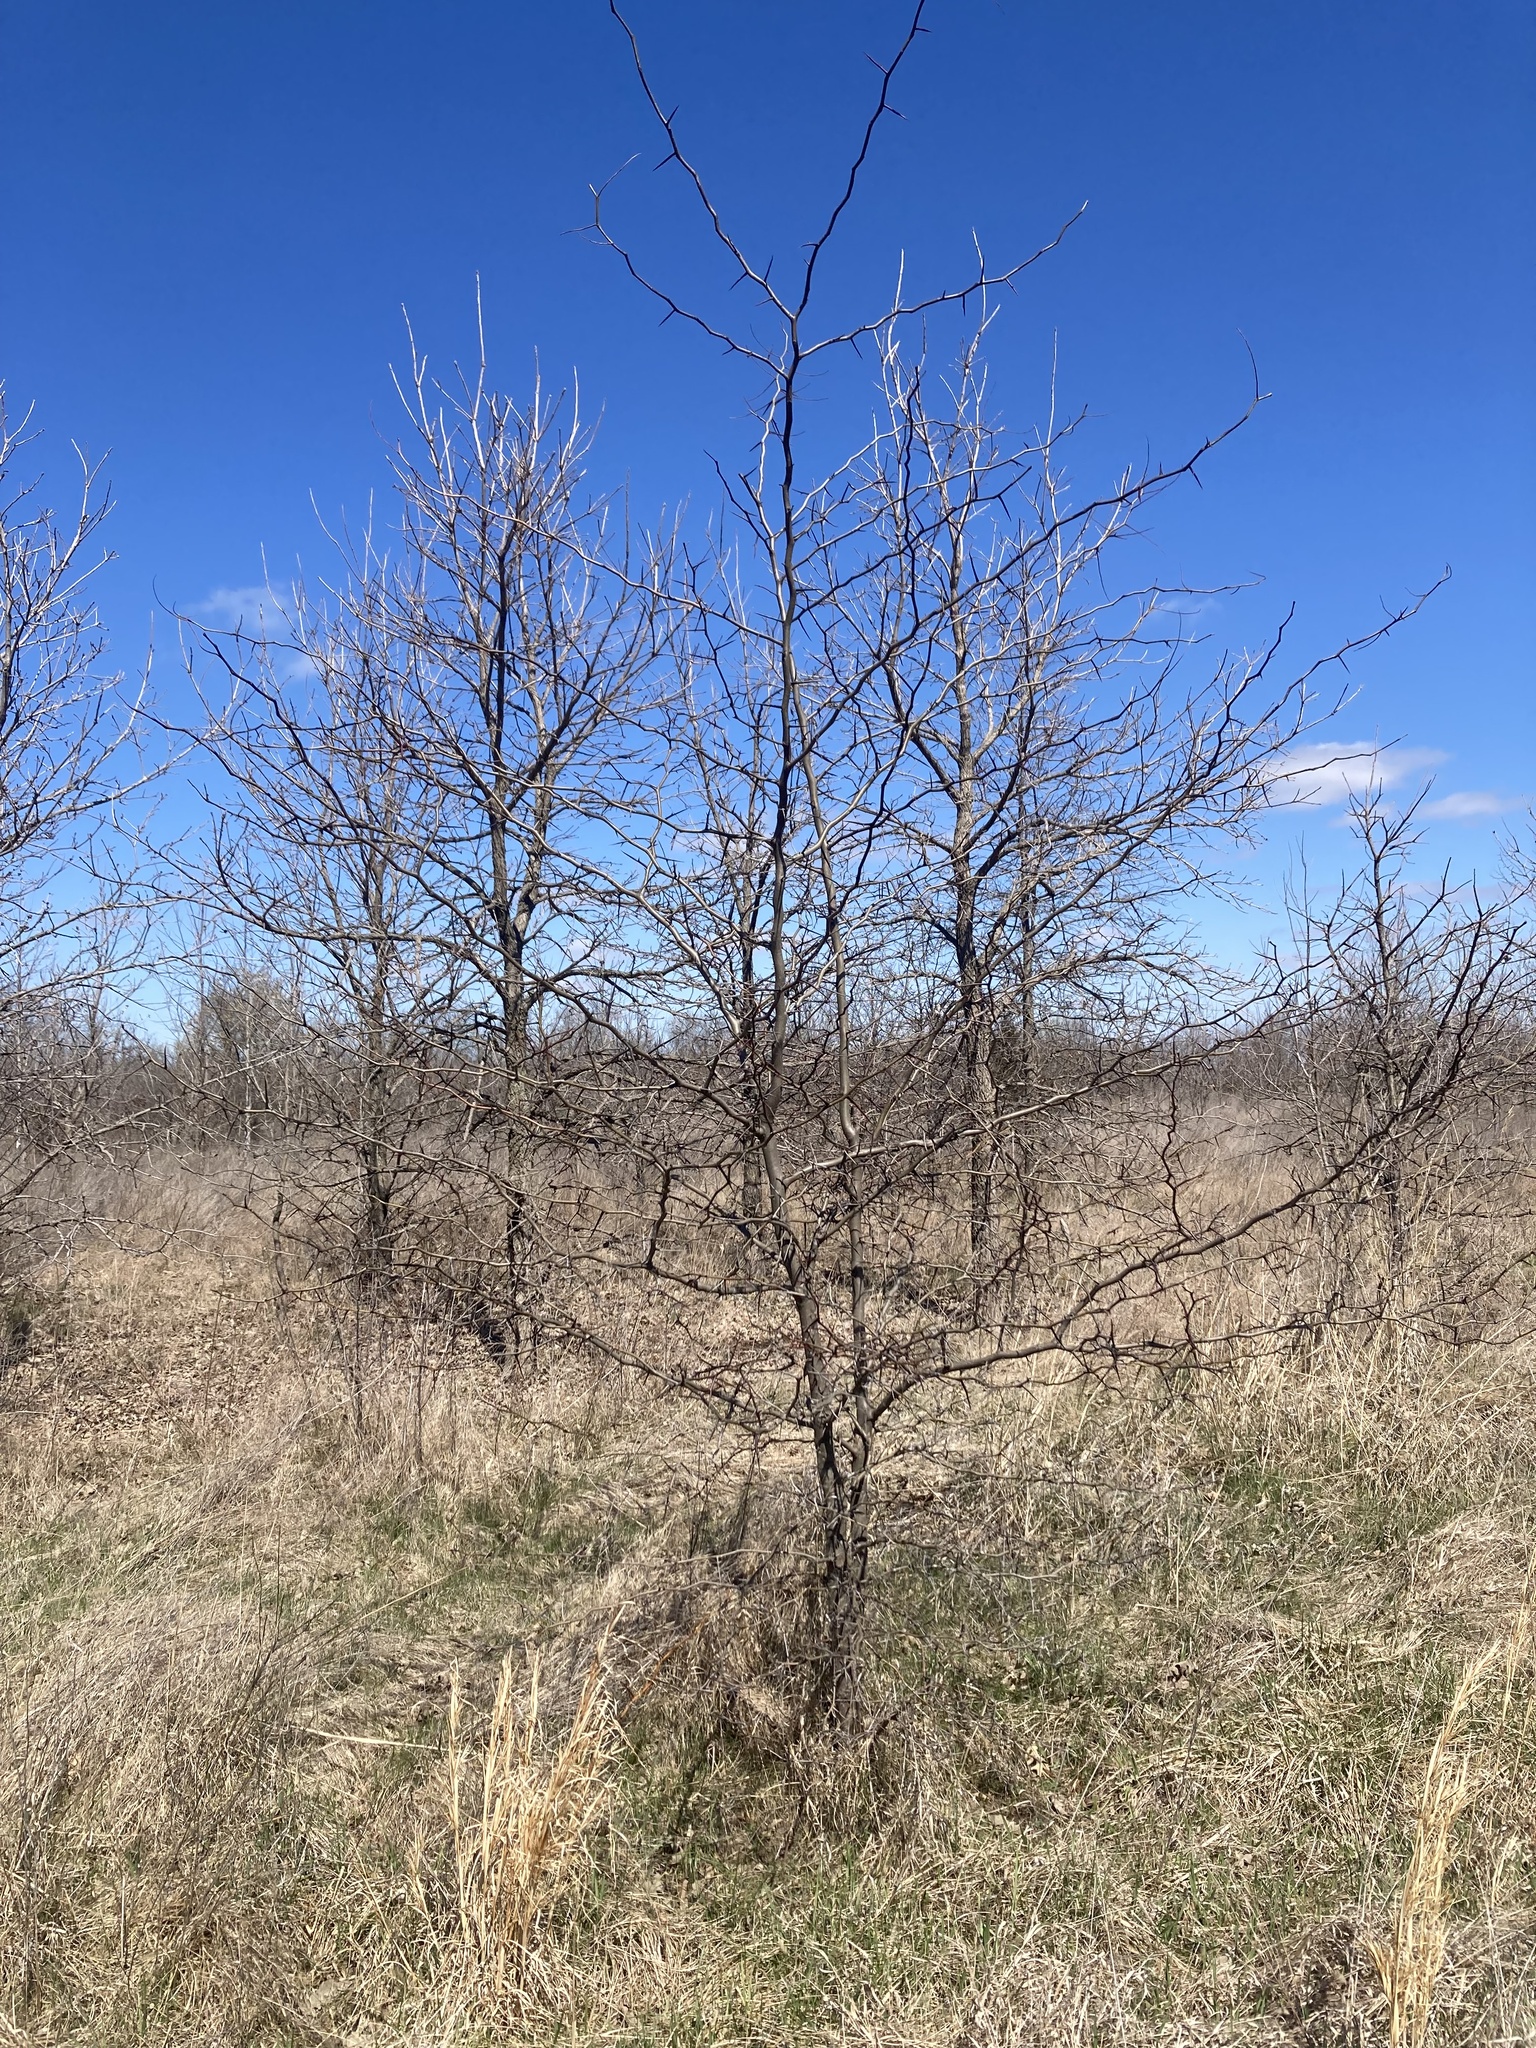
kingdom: Plantae
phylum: Tracheophyta
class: Magnoliopsida
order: Fabales
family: Fabaceae
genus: Gleditsia
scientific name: Gleditsia triacanthos
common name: Common honeylocust
